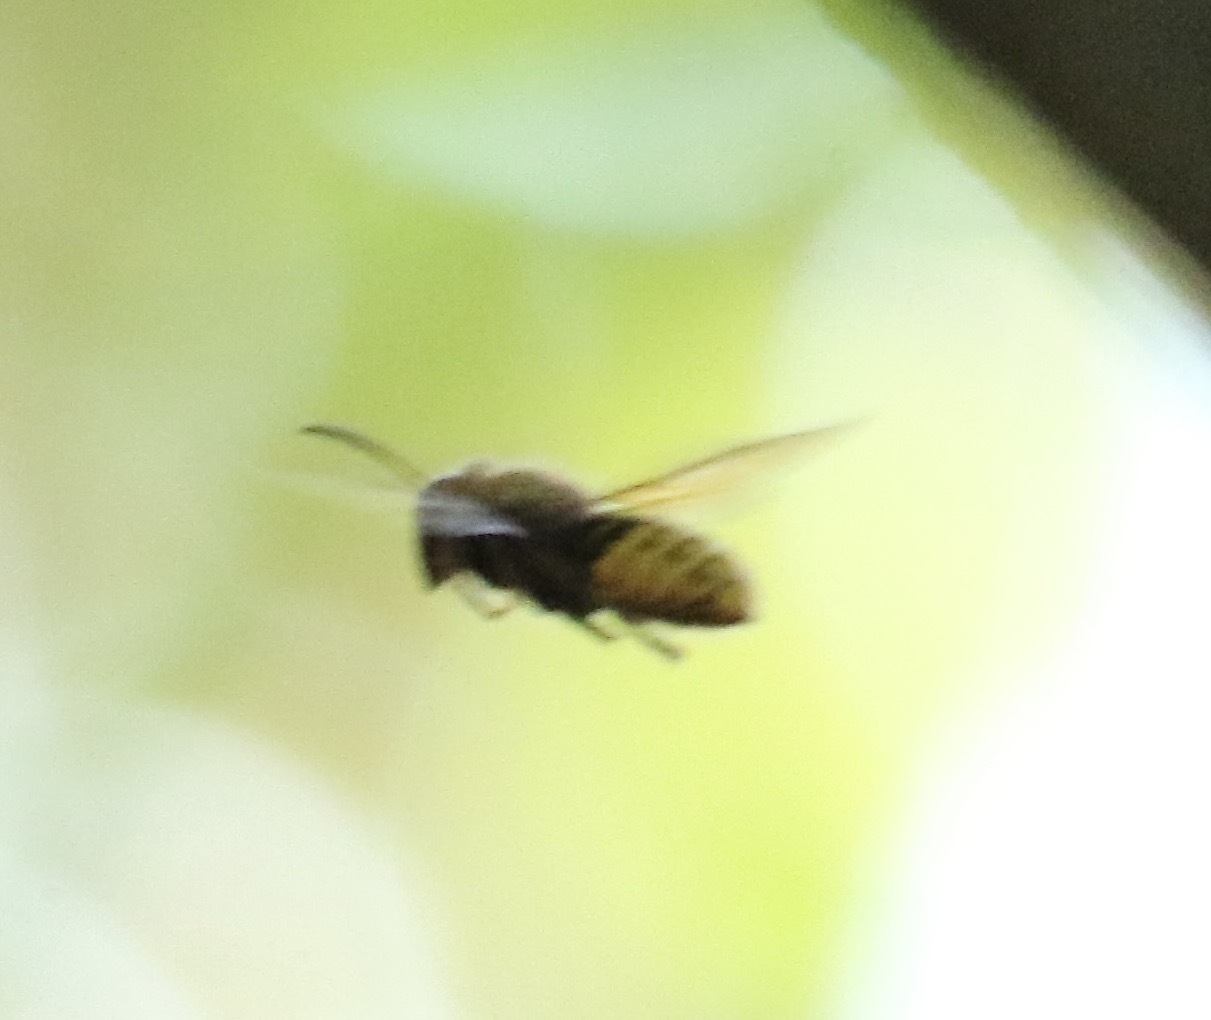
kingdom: Animalia
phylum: Arthropoda
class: Insecta
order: Hymenoptera
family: Vespidae
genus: Vespa
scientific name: Vespa crabro
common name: Hornet
